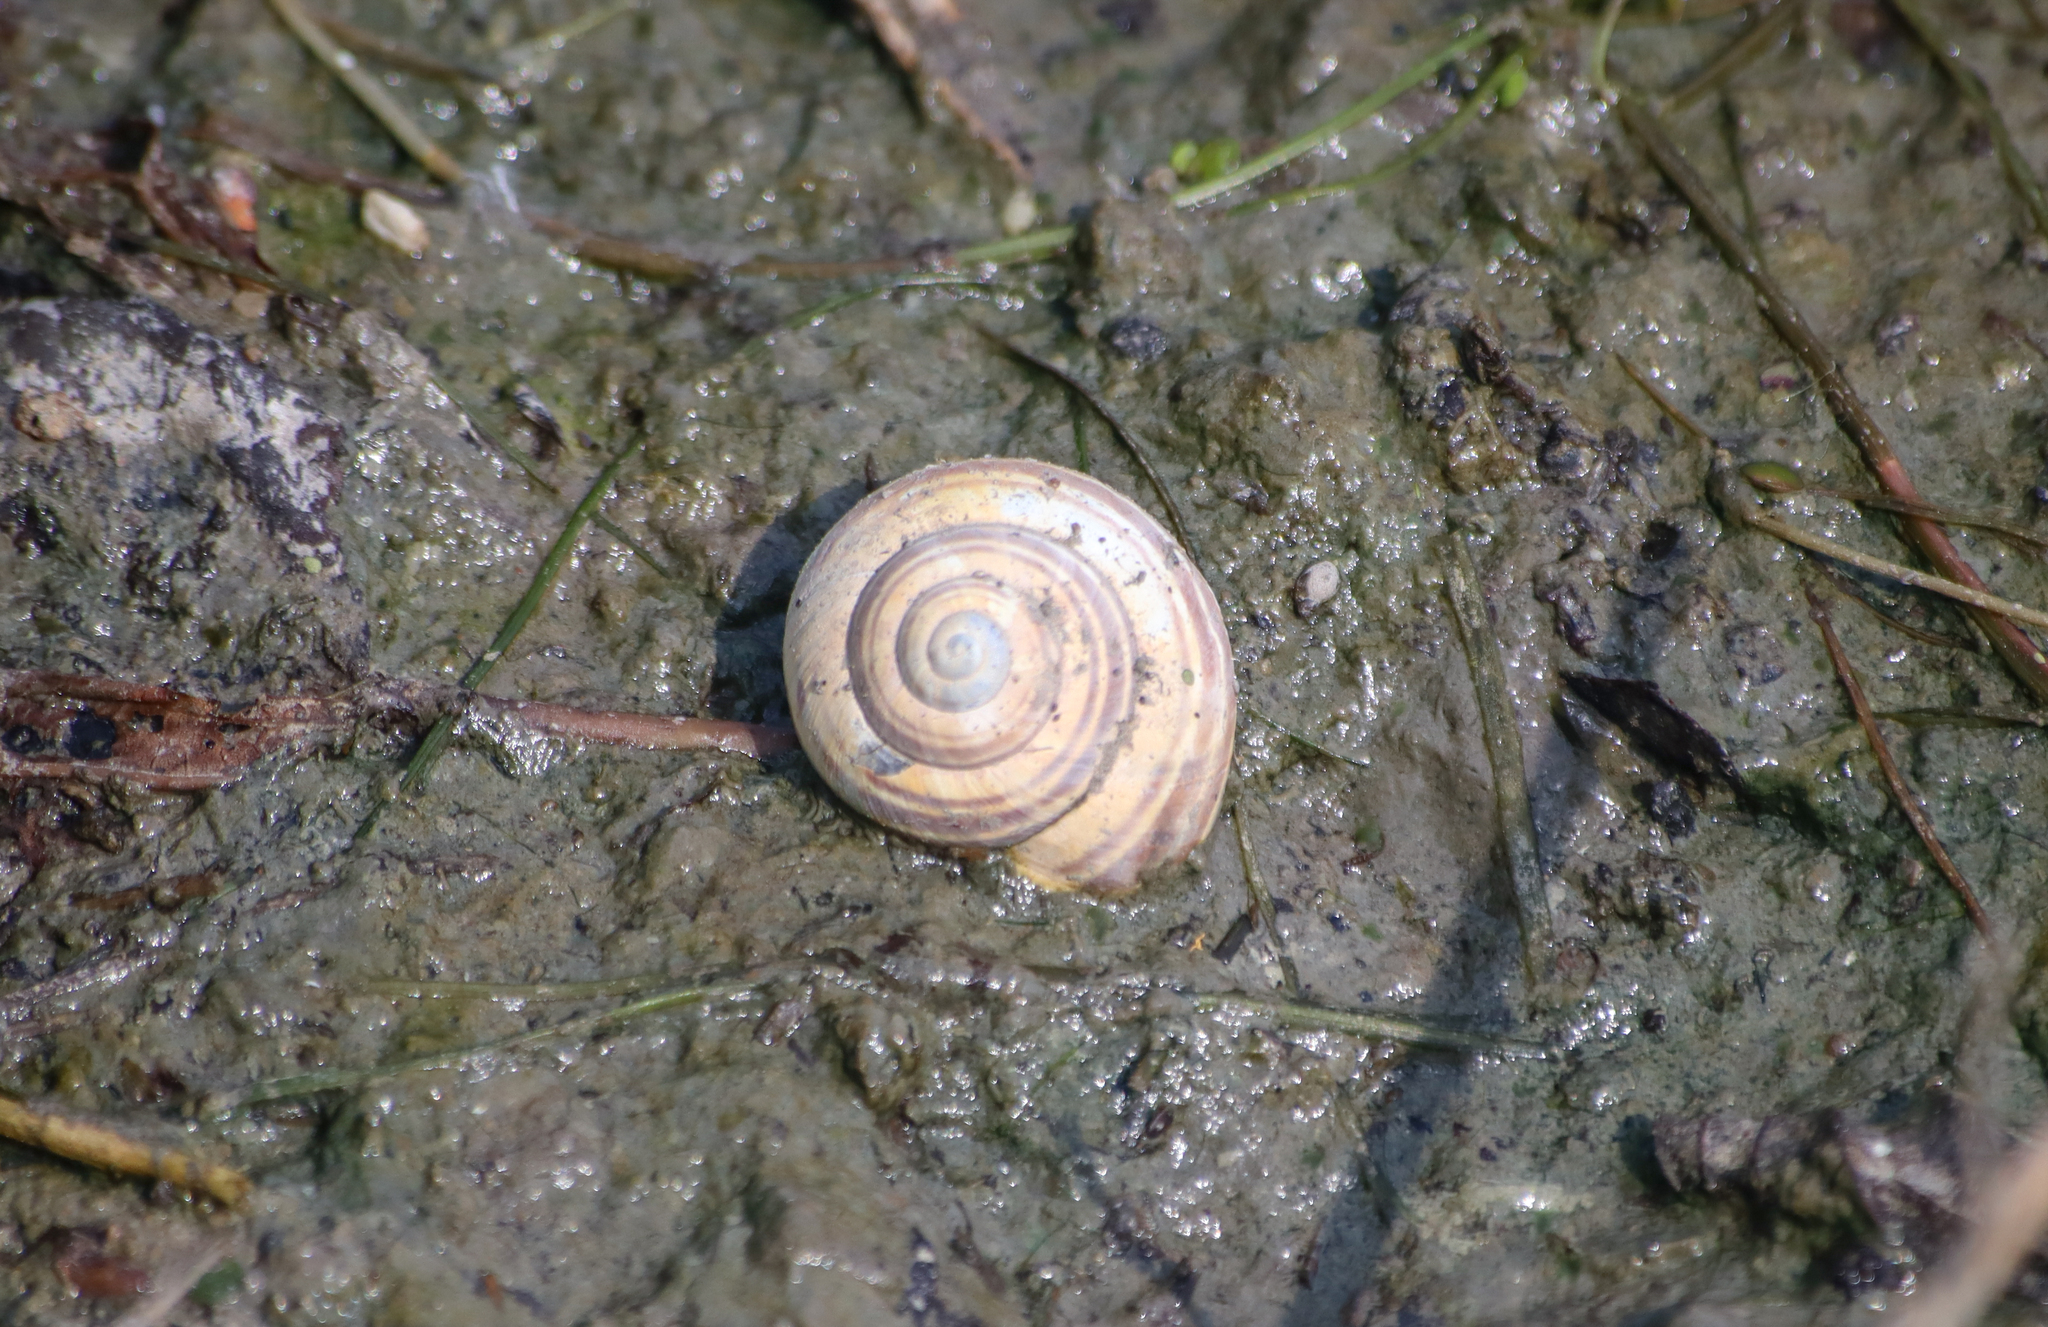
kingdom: Animalia
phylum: Mollusca
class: Gastropoda
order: Stylommatophora
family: Helicidae
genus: Cepaea
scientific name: Cepaea
